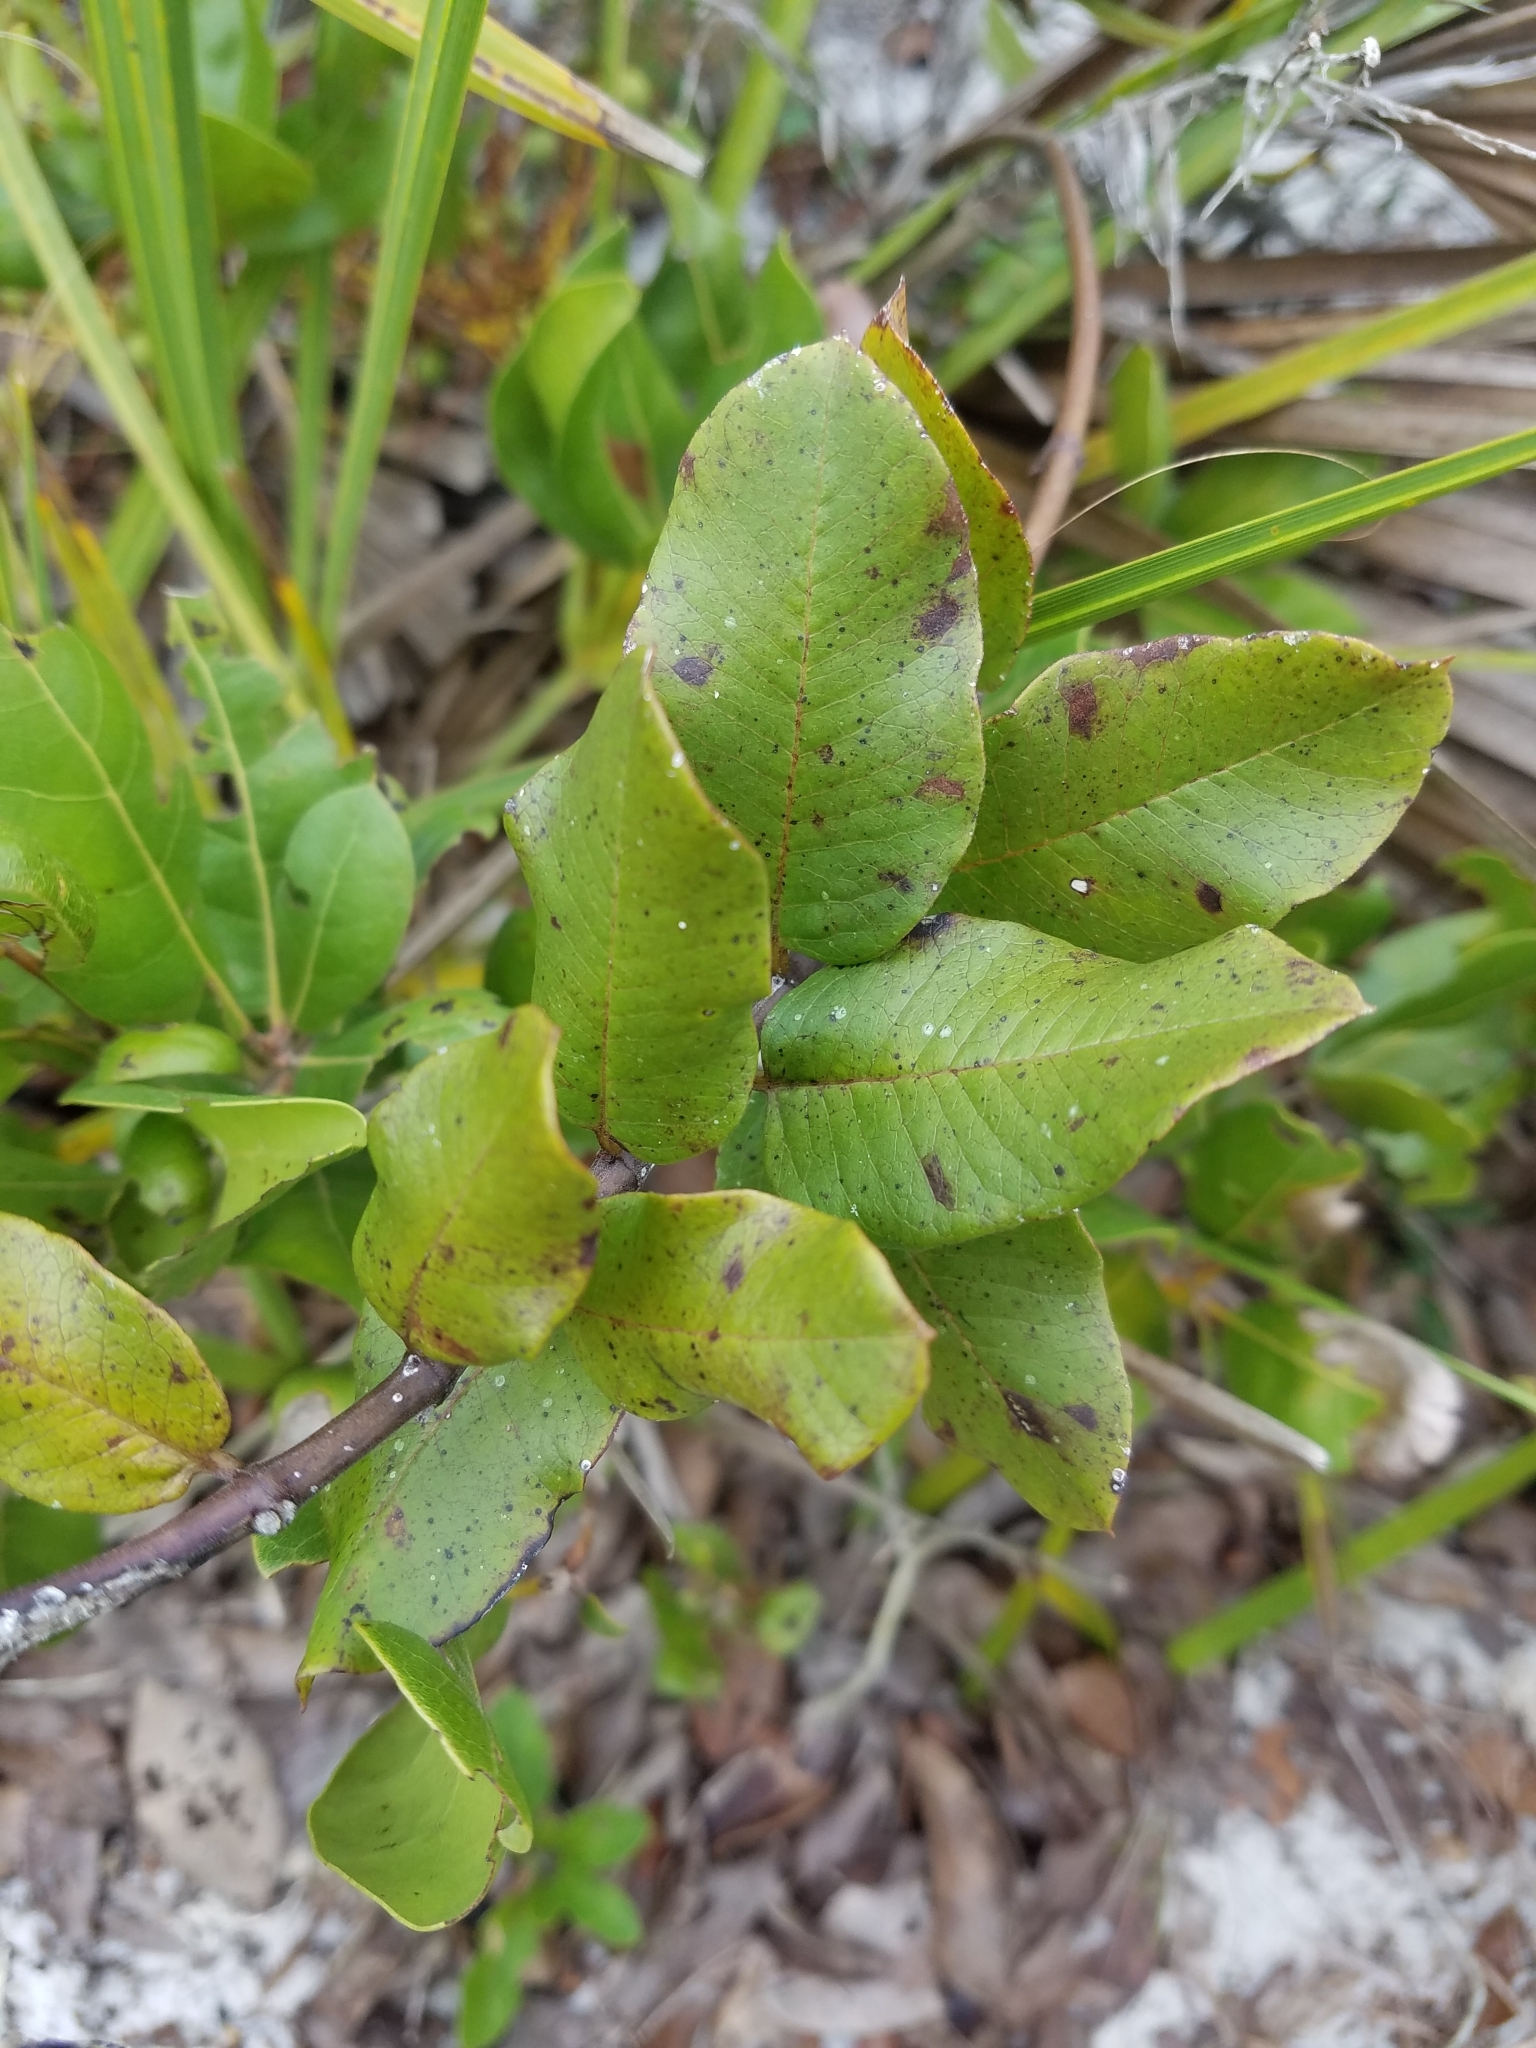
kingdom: Plantae
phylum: Tracheophyta
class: Magnoliopsida
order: Gentianales
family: Apocynaceae
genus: Asclepias
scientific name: Asclepias curtissii
